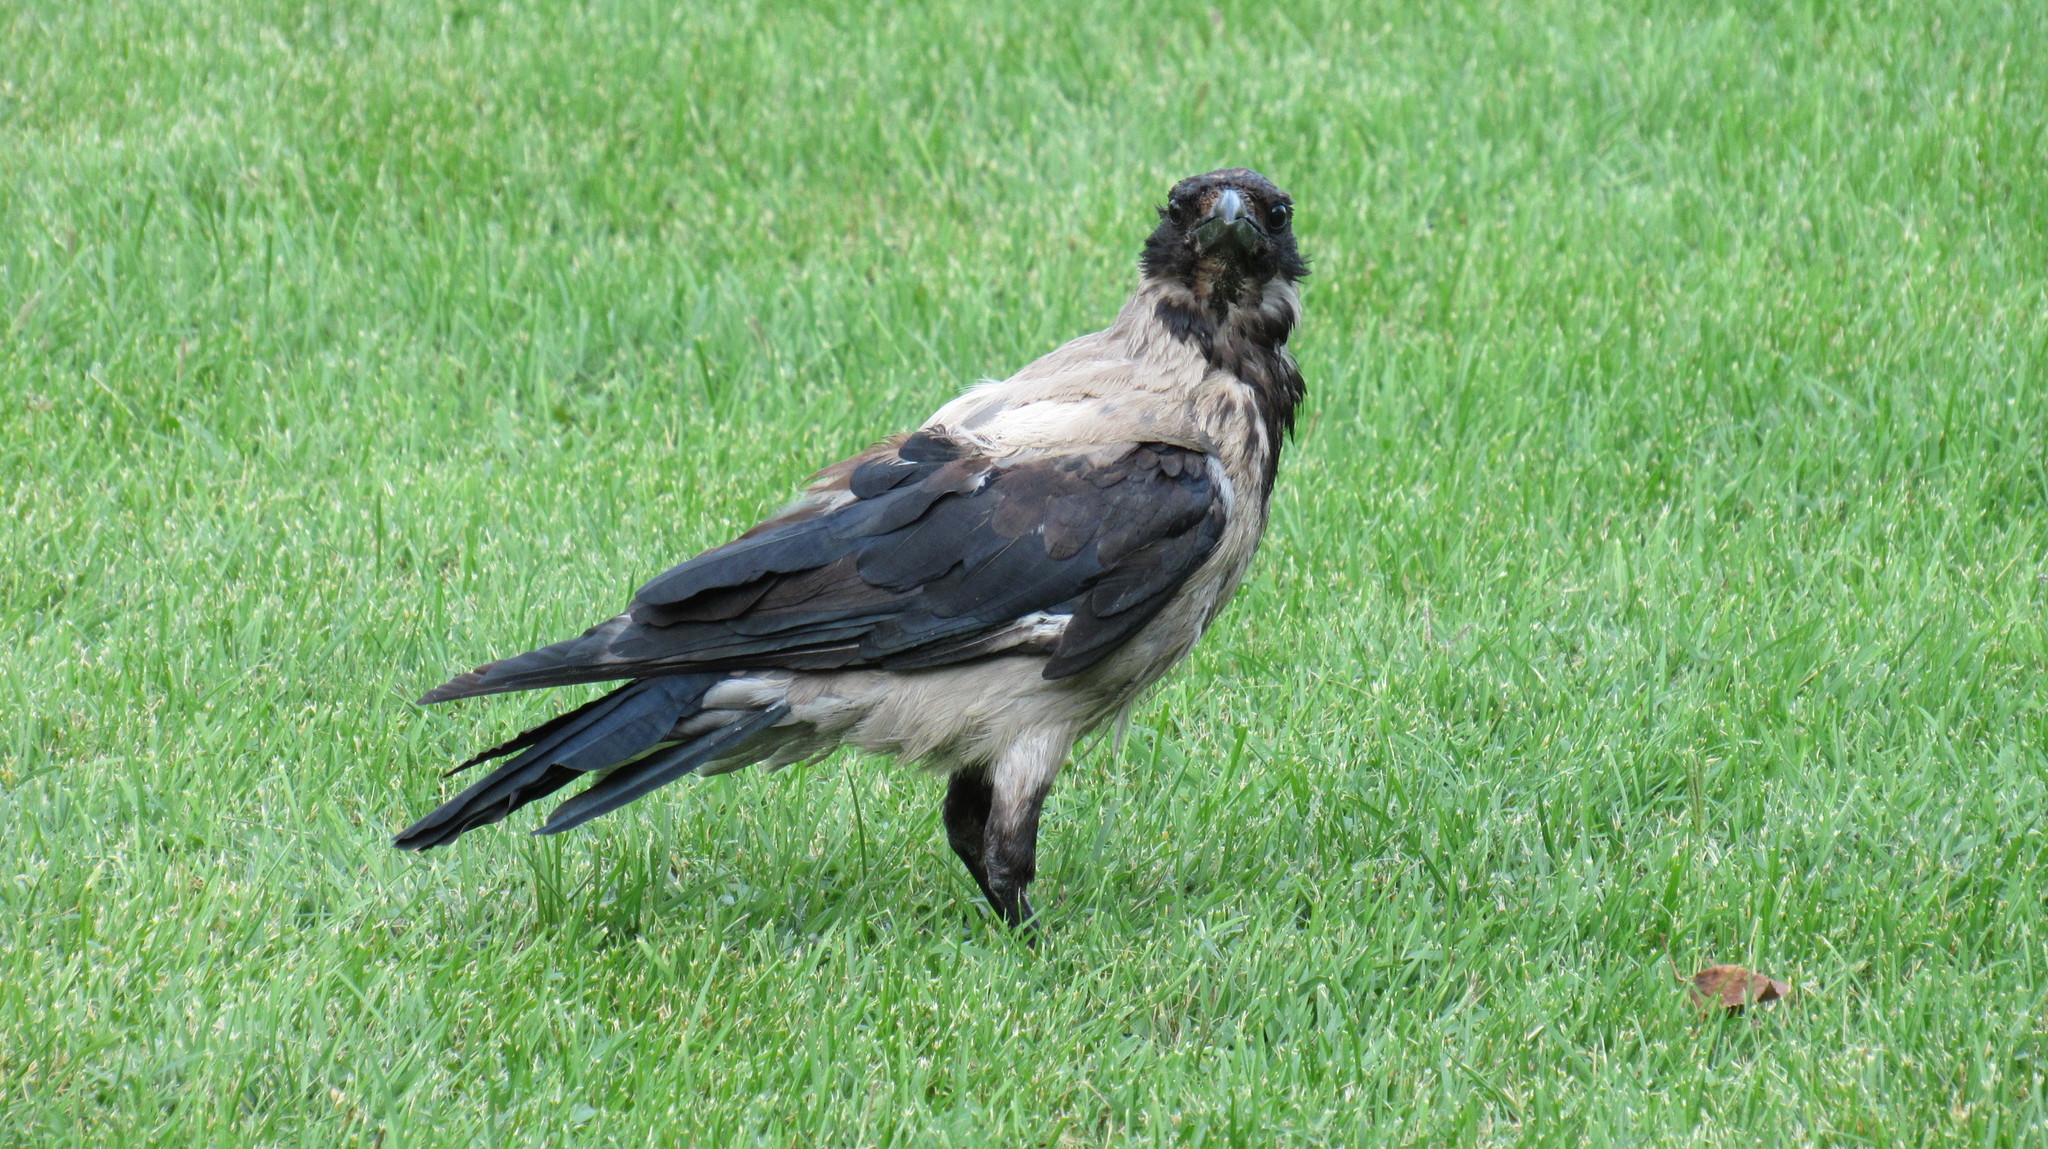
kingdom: Animalia
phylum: Chordata
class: Aves
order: Passeriformes
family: Corvidae
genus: Corvus
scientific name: Corvus cornix
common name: Hooded crow
